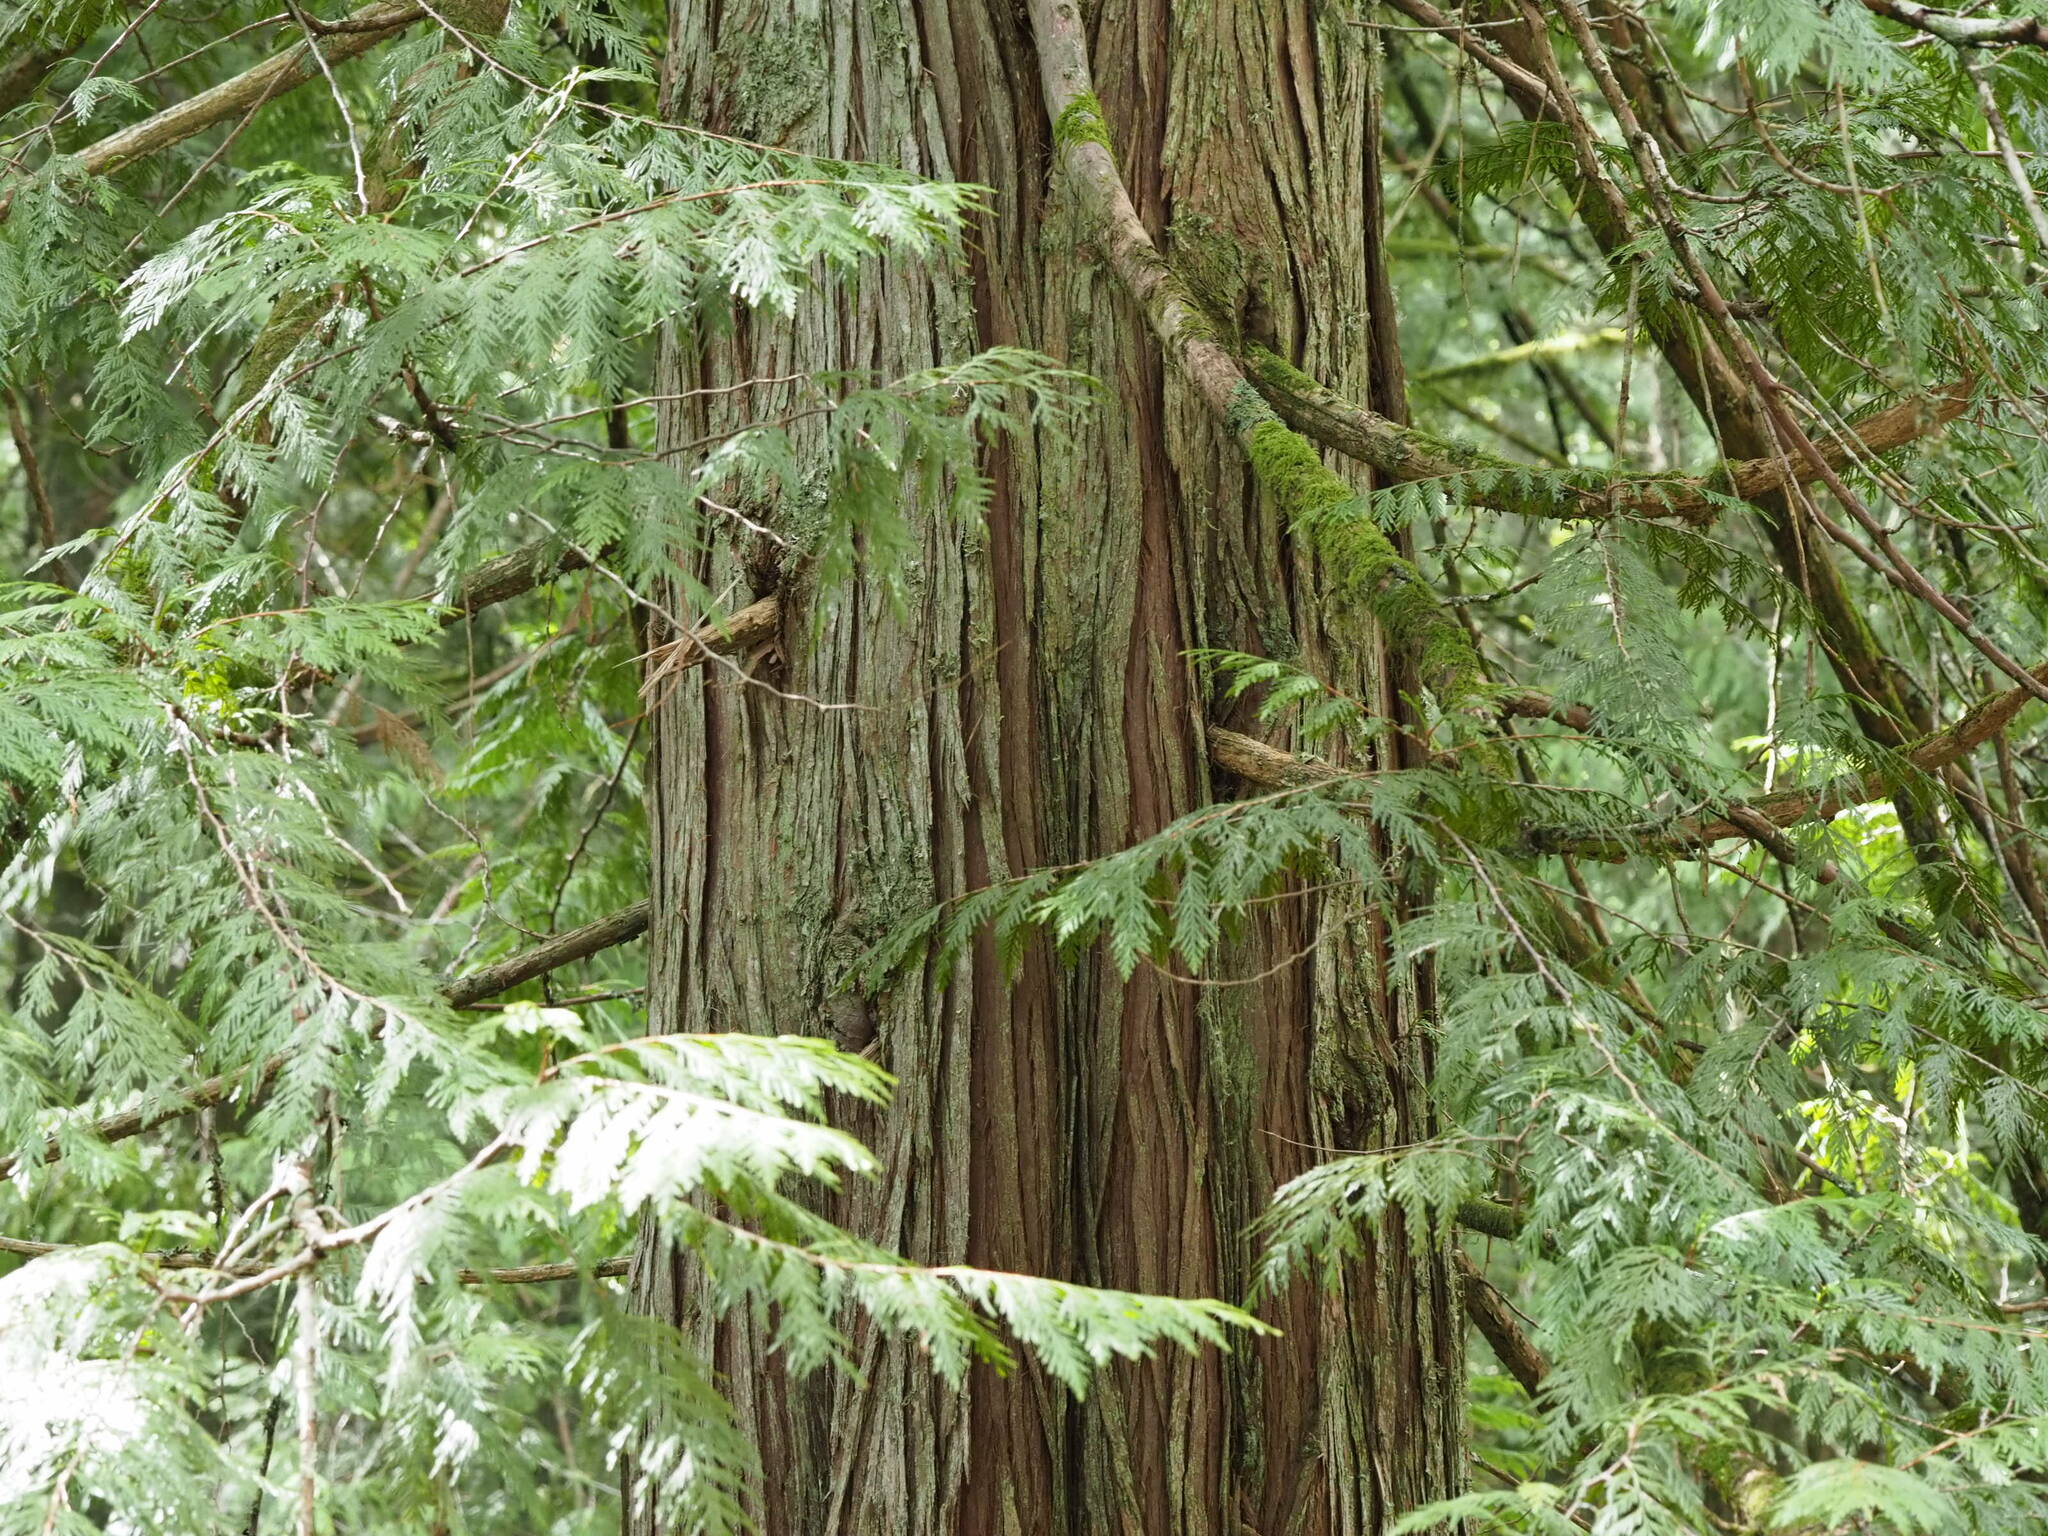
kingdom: Plantae
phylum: Tracheophyta
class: Pinopsida
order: Pinales
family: Cupressaceae
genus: Thuja
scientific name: Thuja plicata
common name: Western red-cedar
